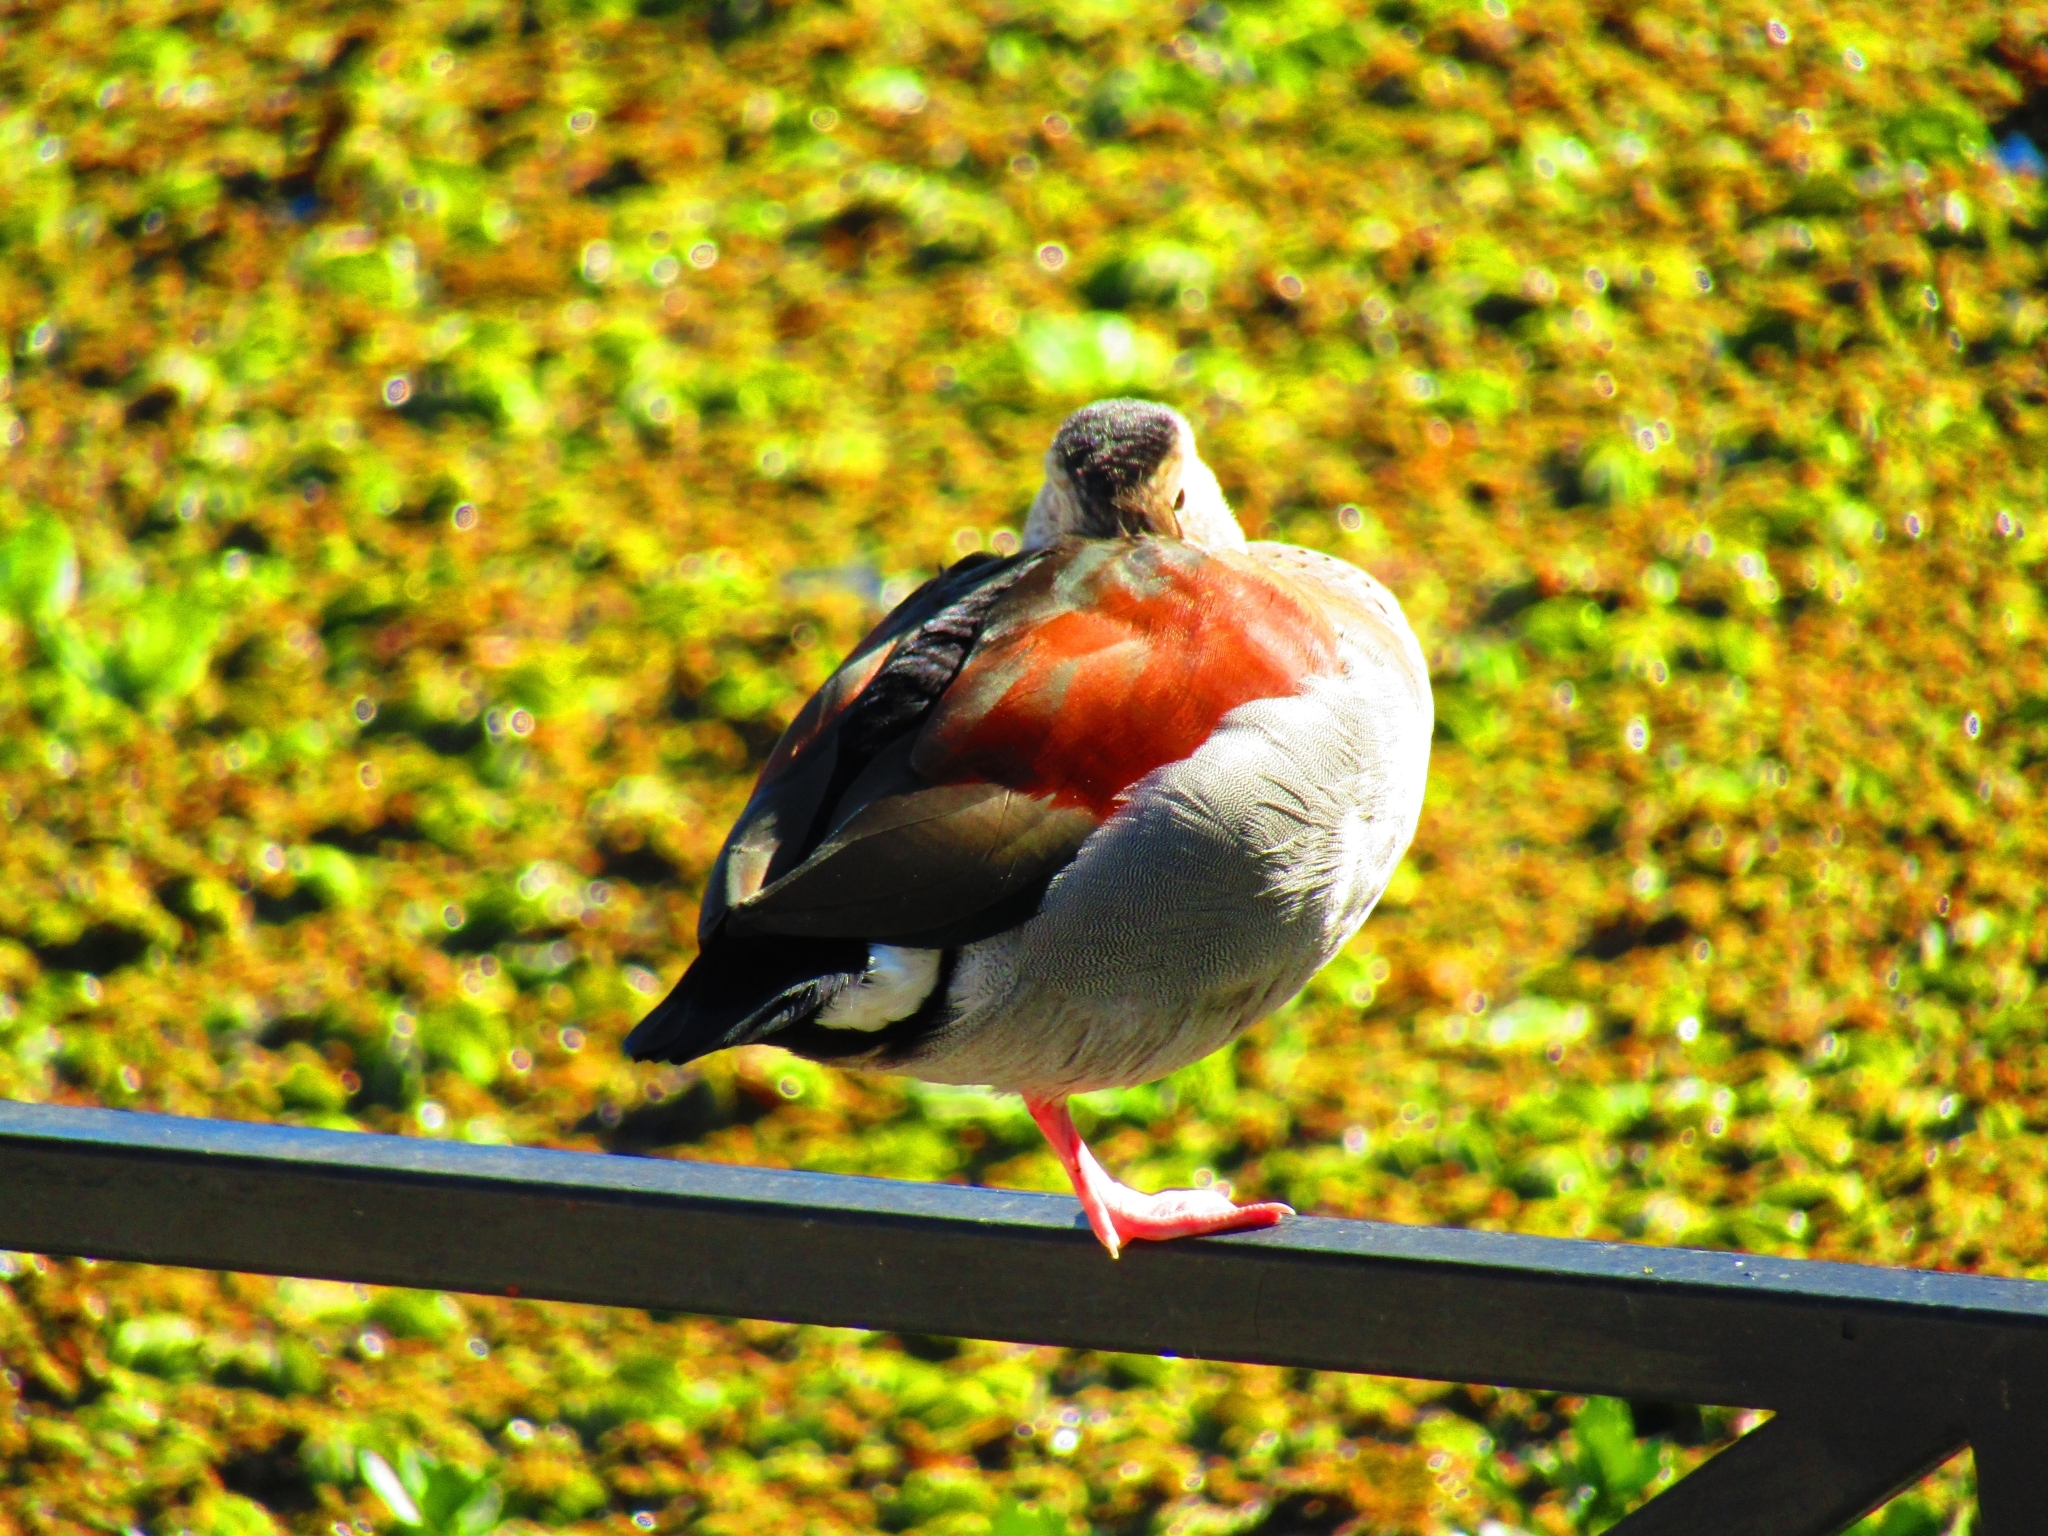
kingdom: Animalia
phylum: Chordata
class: Aves
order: Anseriformes
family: Anatidae
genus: Callonetta
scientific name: Callonetta leucophrys
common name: Ringed teal
